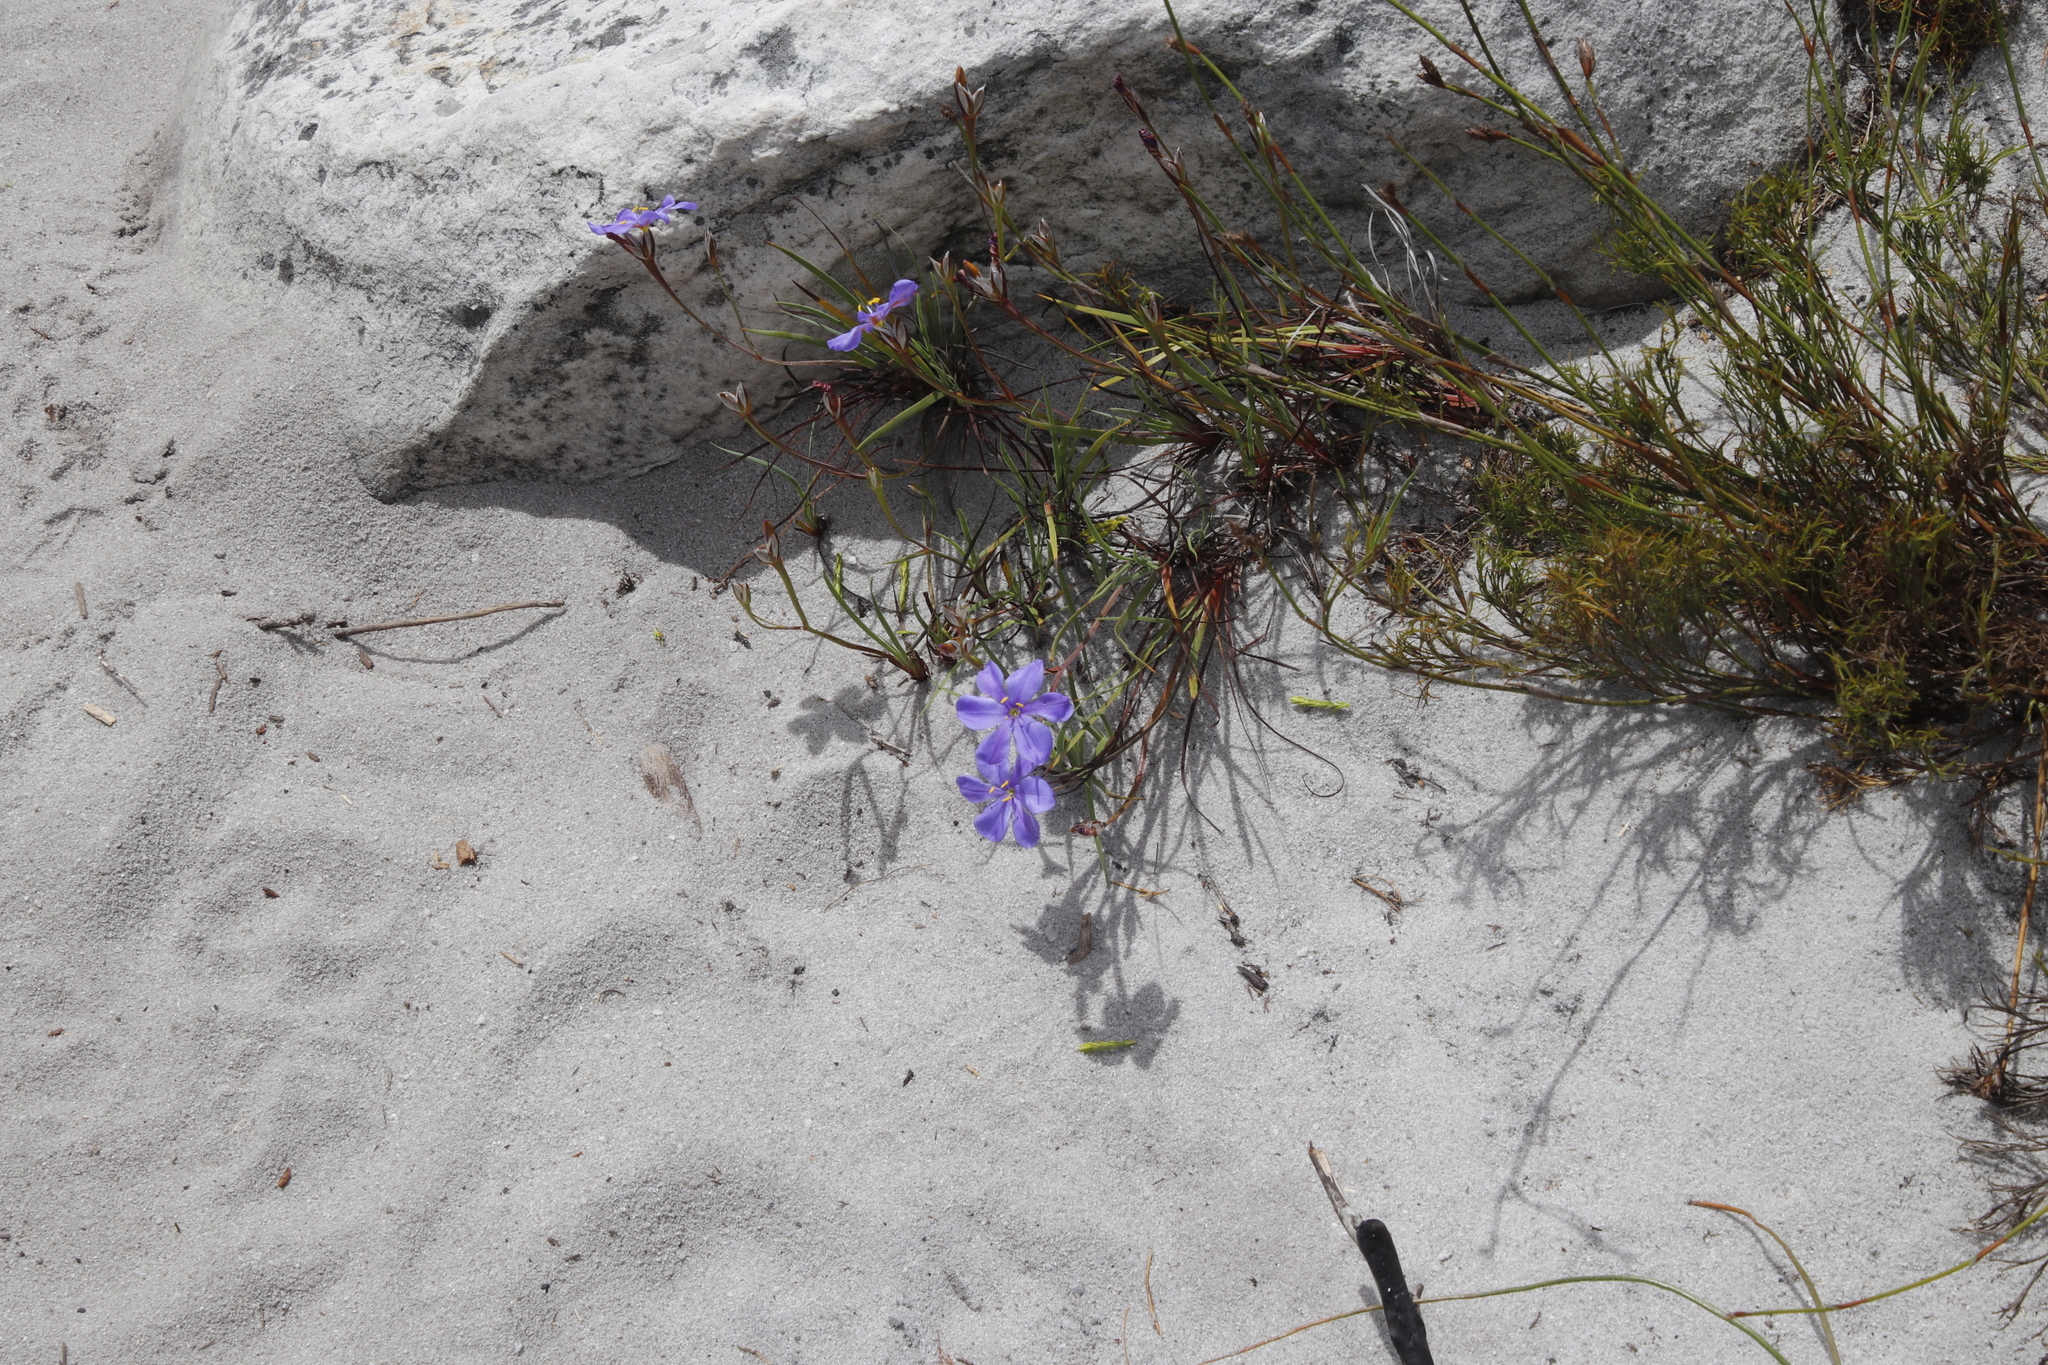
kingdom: Plantae
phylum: Tracheophyta
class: Liliopsida
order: Asparagales
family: Iridaceae
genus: Aristea
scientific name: Aristea africana
